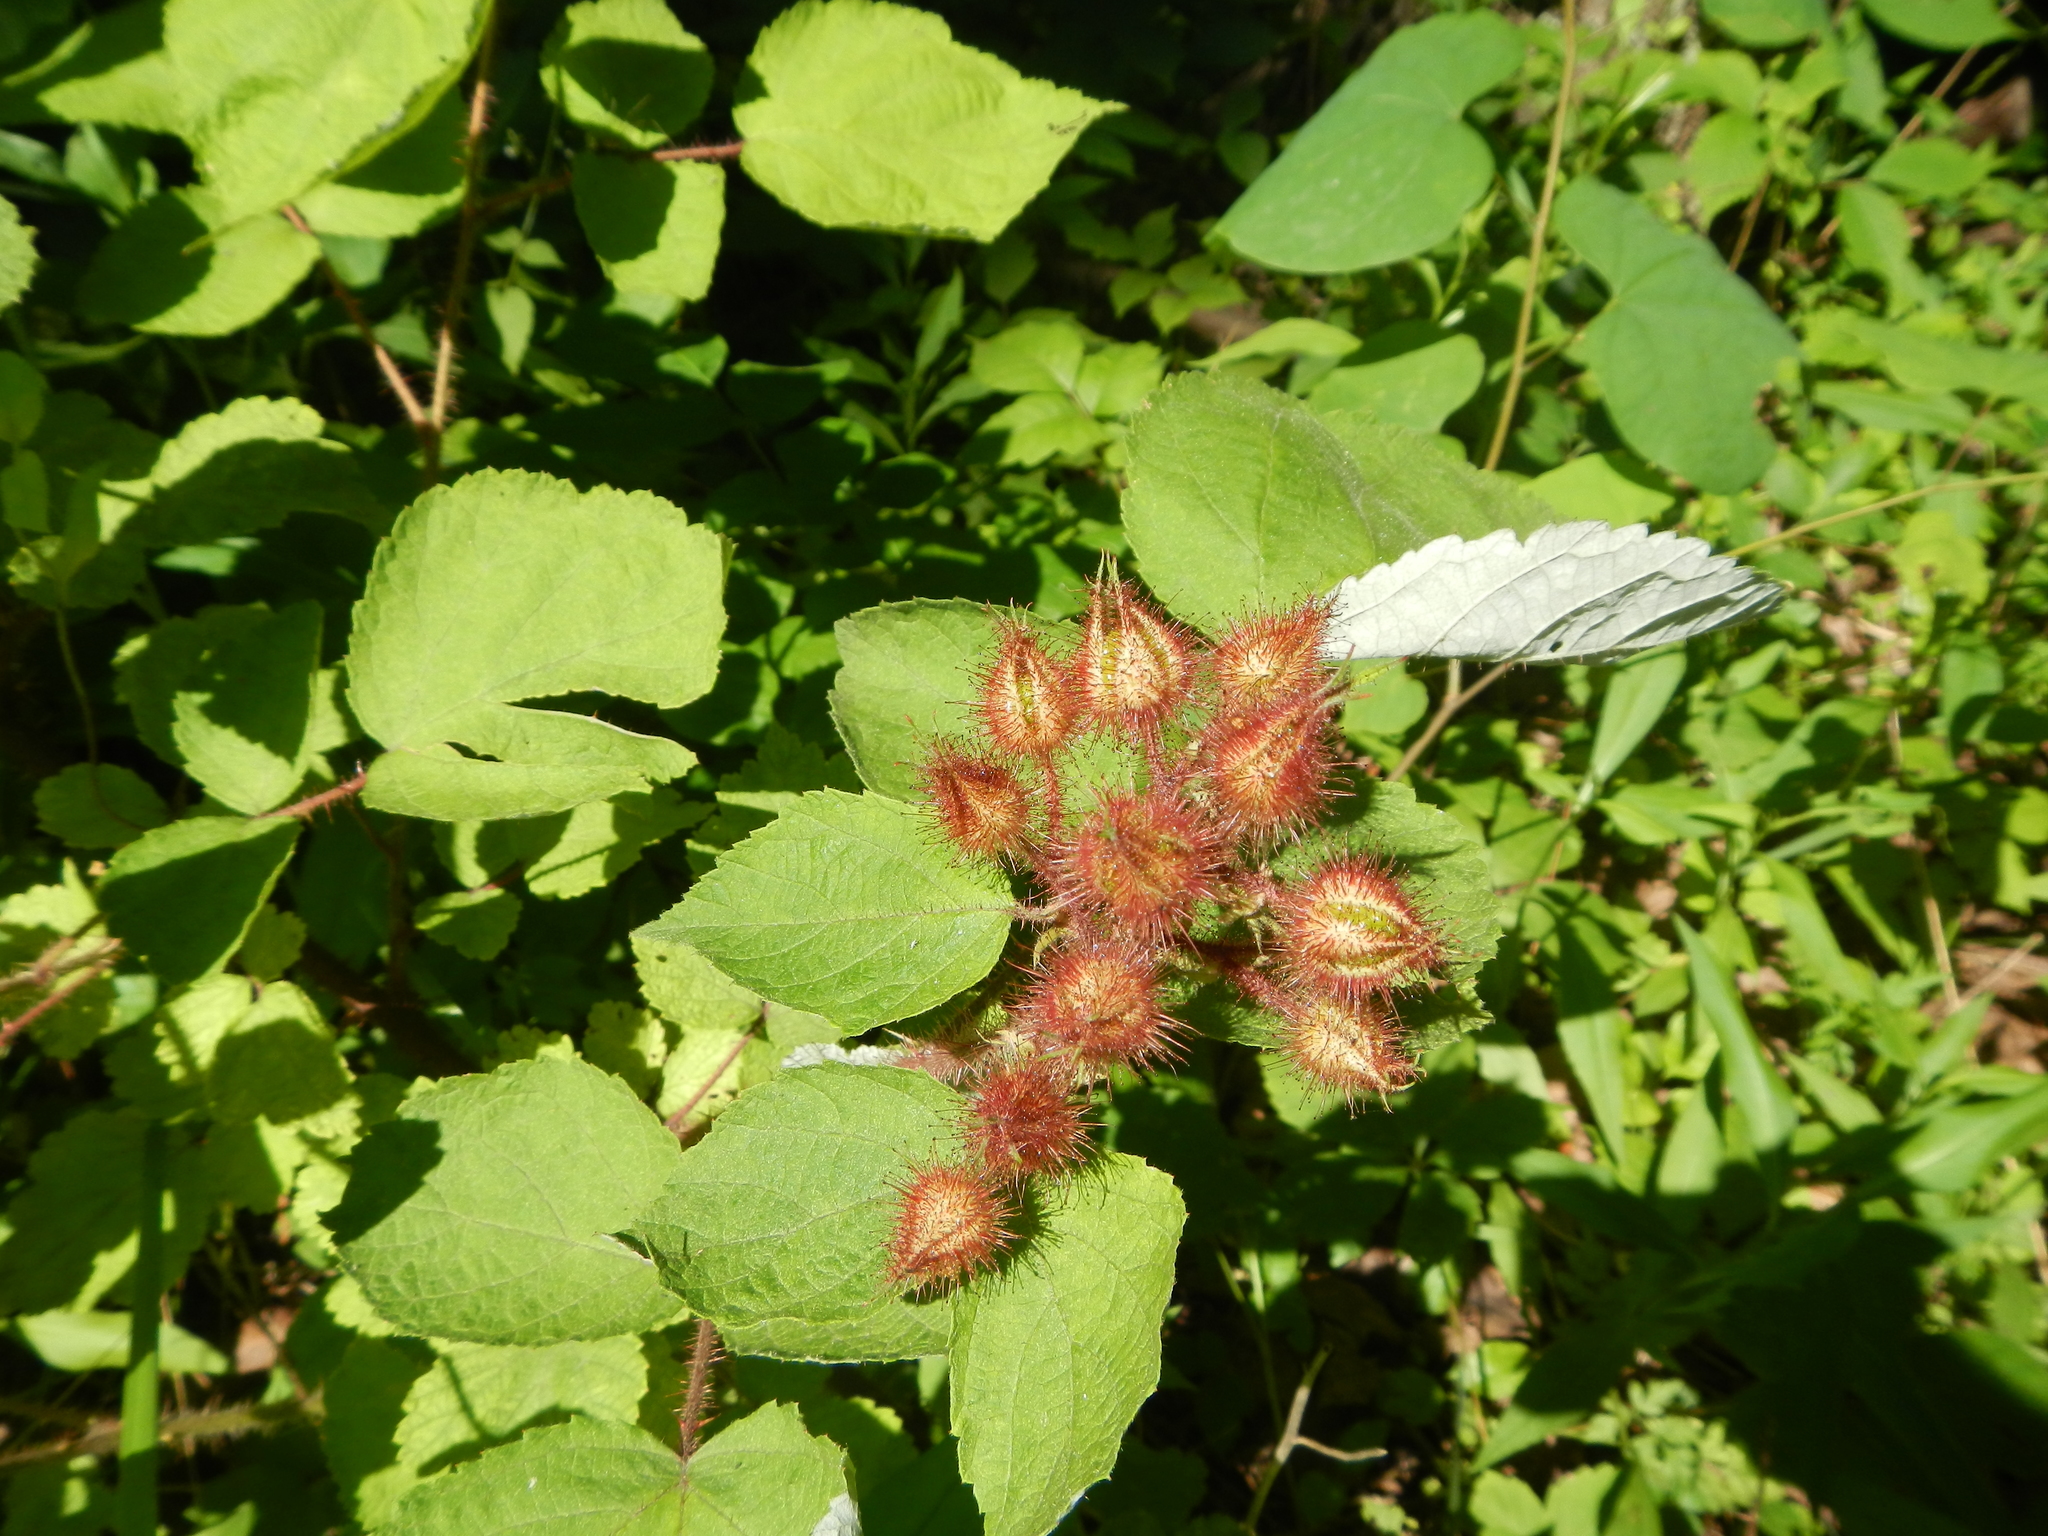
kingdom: Plantae
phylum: Tracheophyta
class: Magnoliopsida
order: Rosales
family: Rosaceae
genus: Rubus
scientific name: Rubus phoenicolasius
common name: Japanese wineberry
